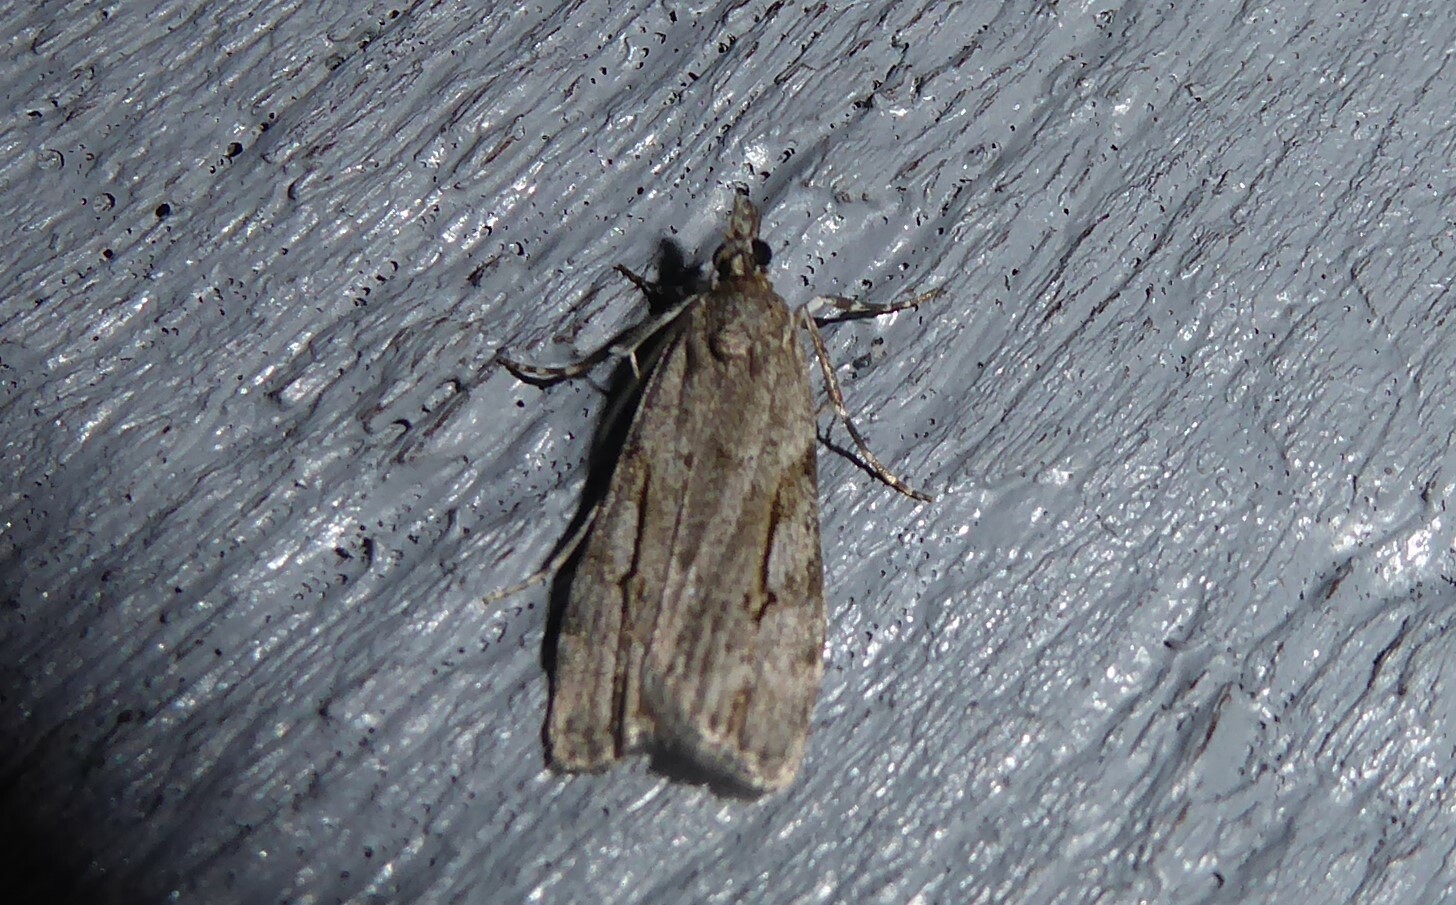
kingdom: Animalia
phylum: Arthropoda
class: Insecta
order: Lepidoptera
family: Crambidae
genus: Eudonia
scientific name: Eudonia bisinualis
